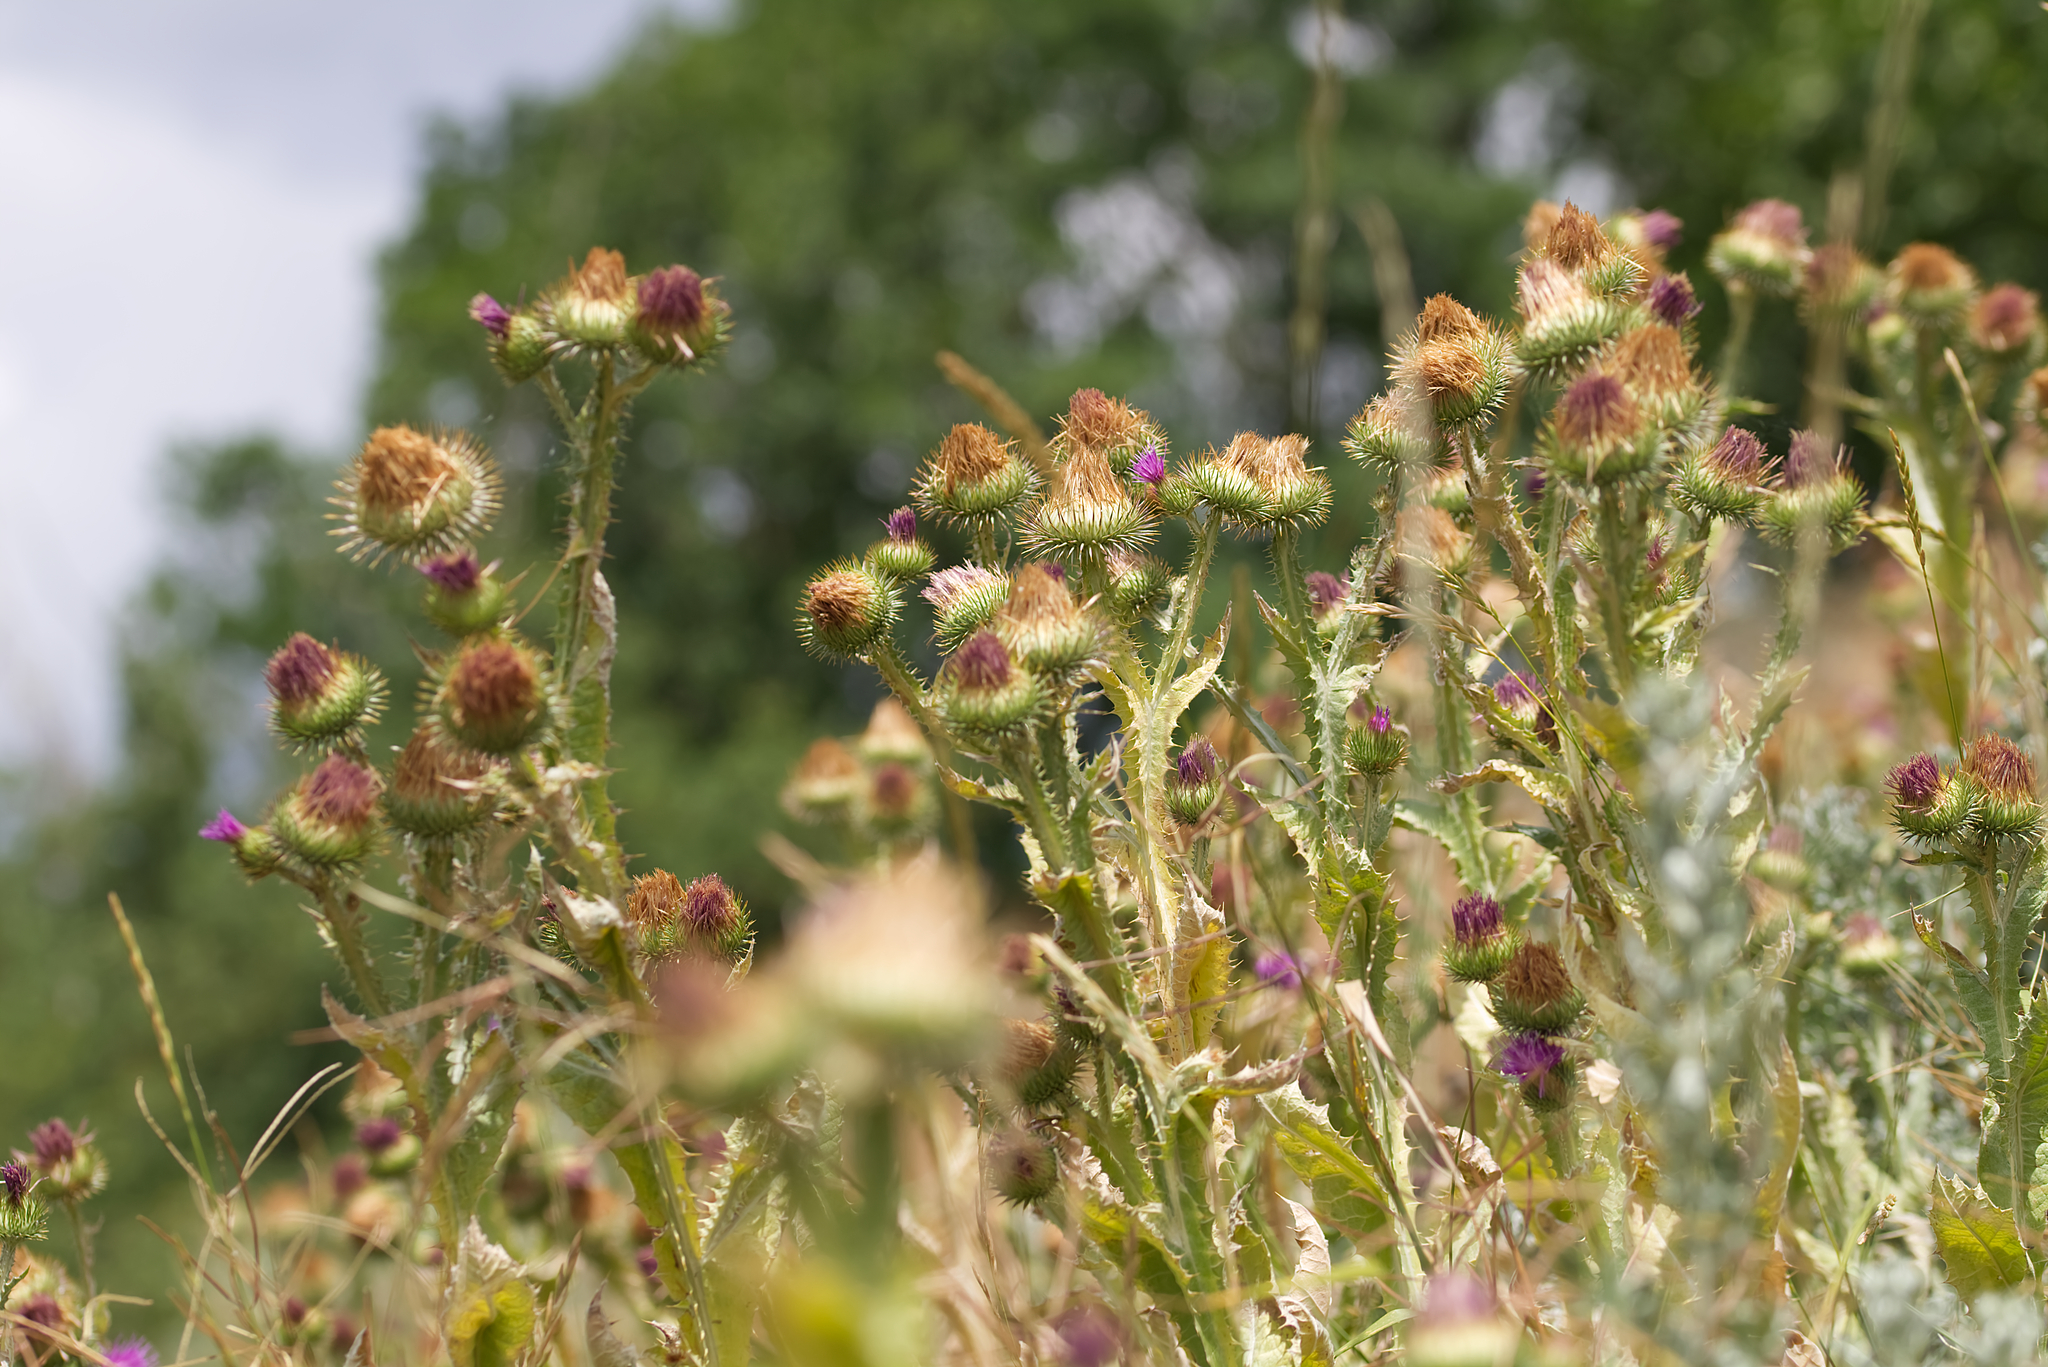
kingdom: Plantae
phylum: Tracheophyta
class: Magnoliopsida
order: Asterales
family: Asteraceae
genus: Onopordum
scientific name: Onopordum acanthium
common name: Scotch thistle
